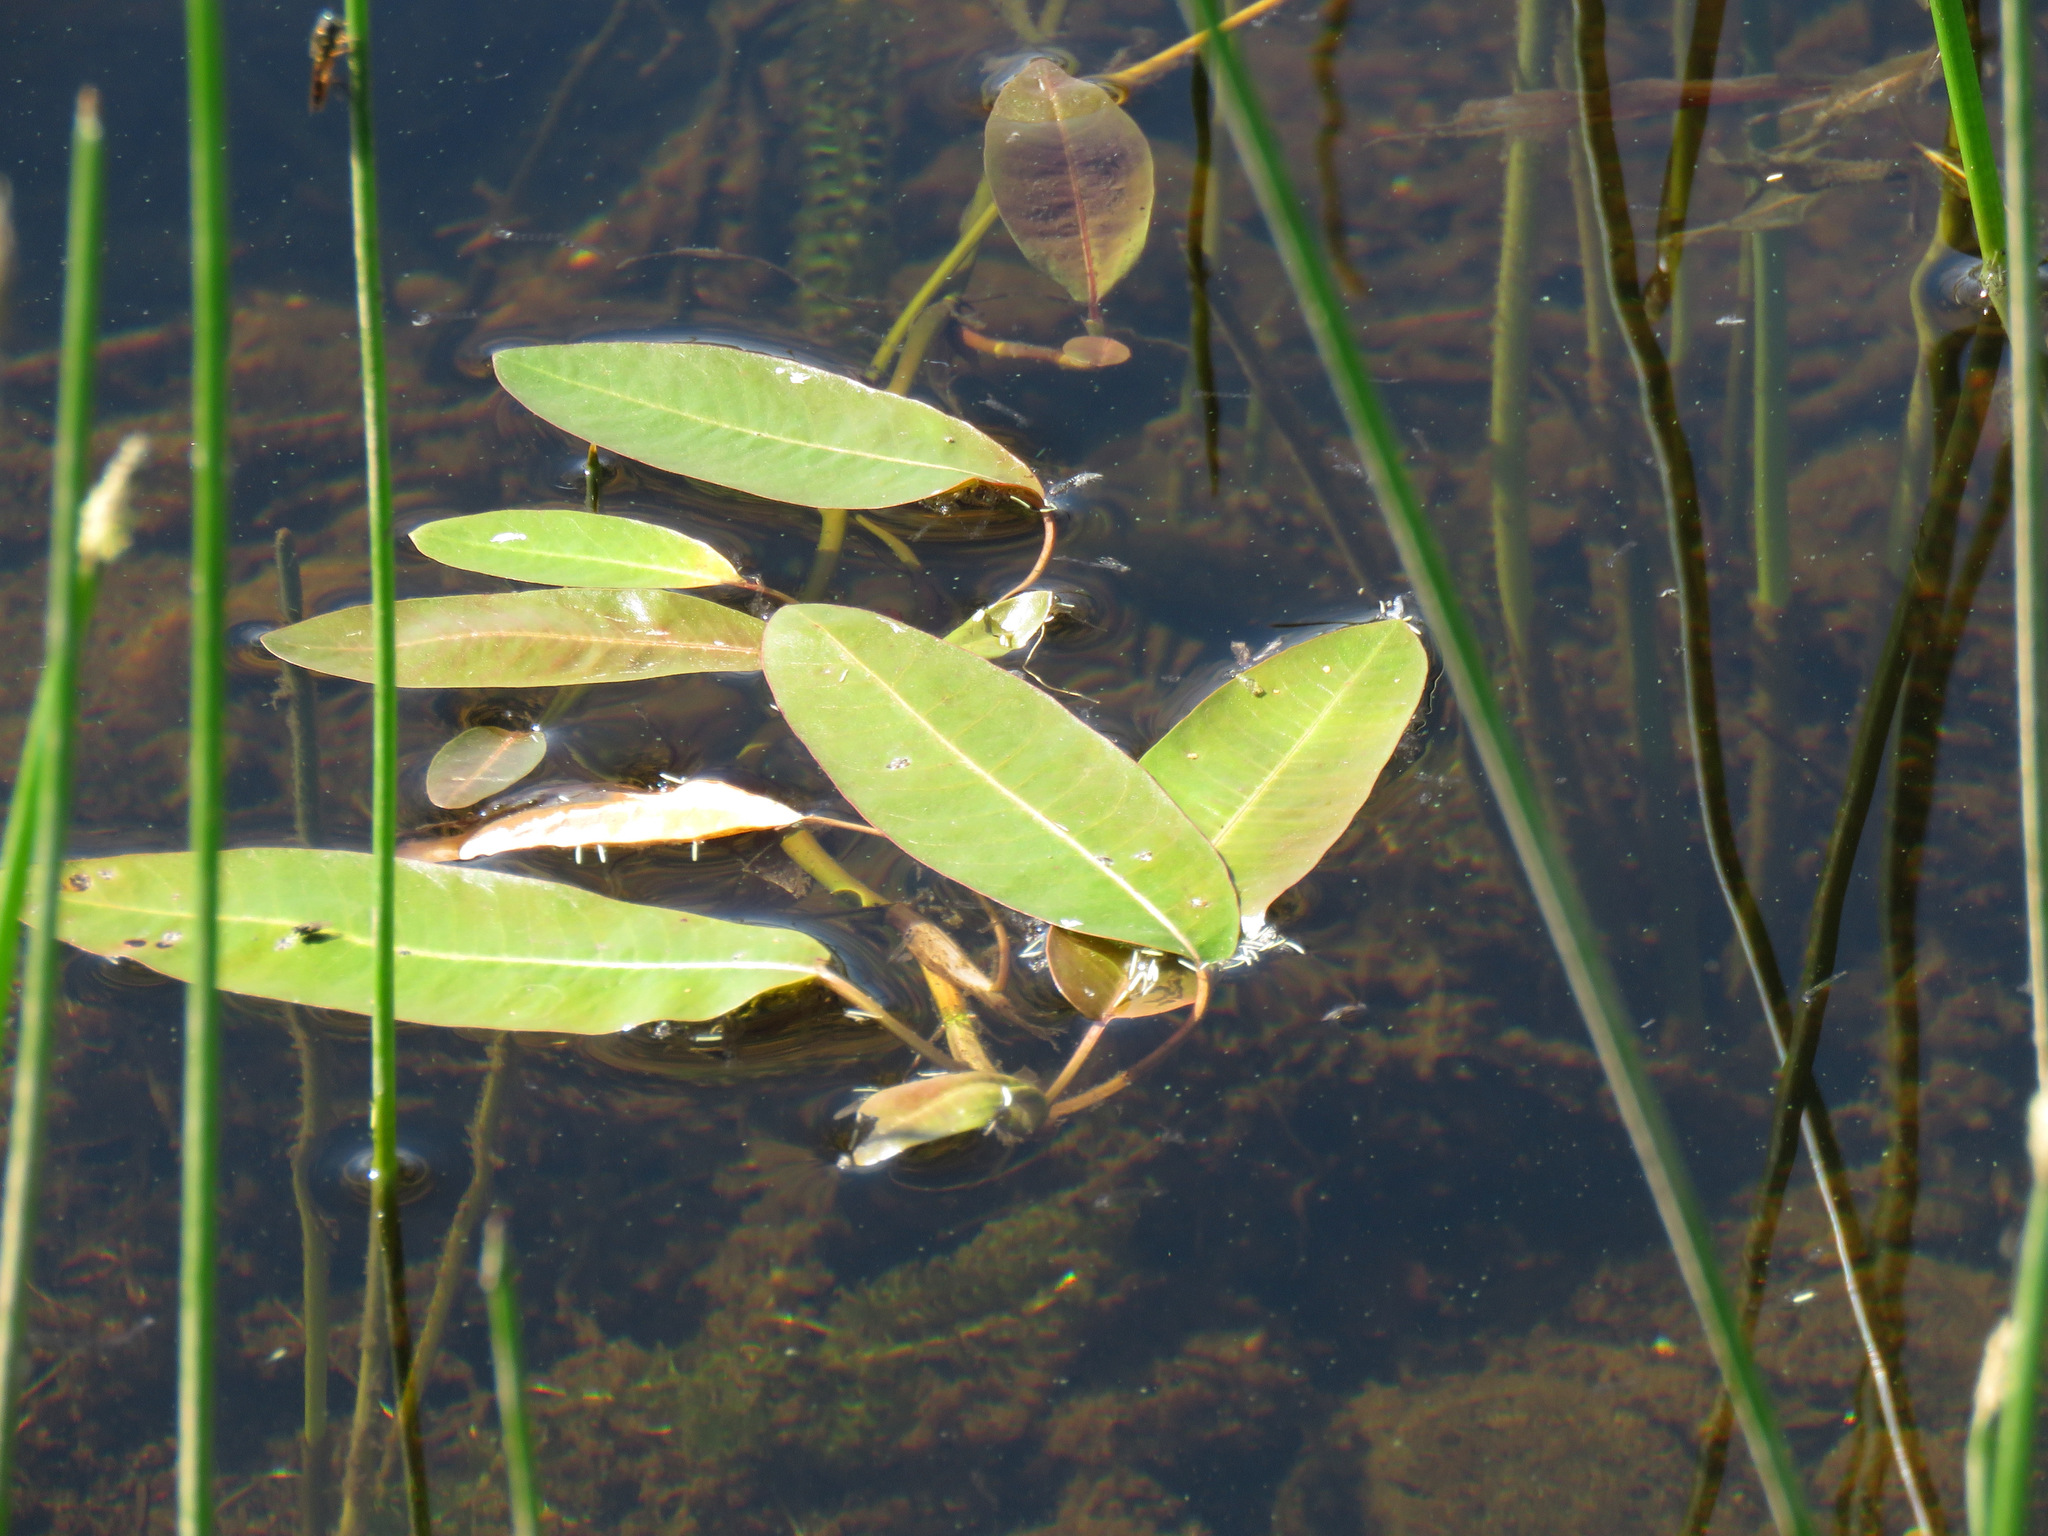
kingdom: Plantae
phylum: Tracheophyta
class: Magnoliopsida
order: Caryophyllales
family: Polygonaceae
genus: Persicaria
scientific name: Persicaria amphibia
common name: Amphibious bistort
